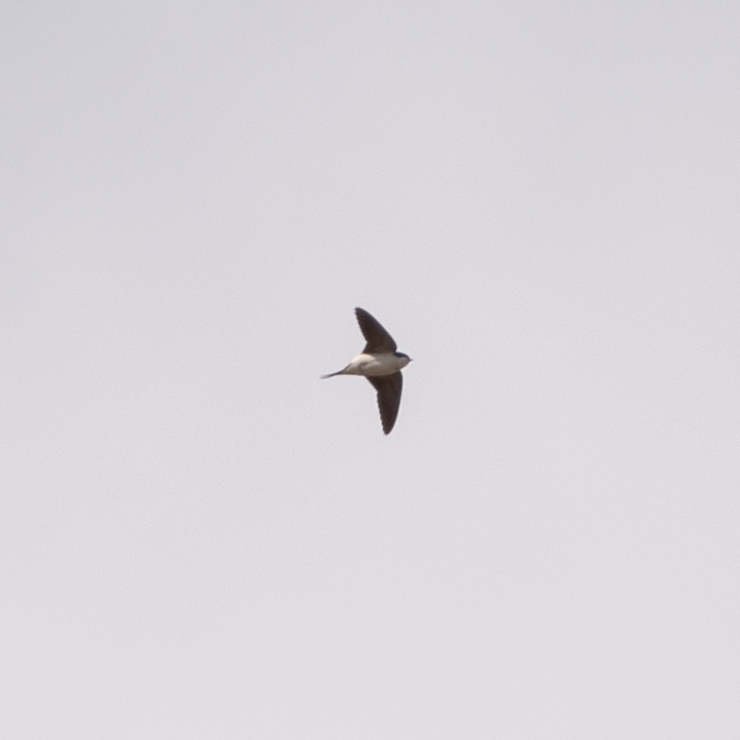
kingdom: Animalia
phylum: Chordata
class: Aves
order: Passeriformes
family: Hirundinidae
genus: Delichon
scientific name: Delichon urbicum
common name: Common house martin
